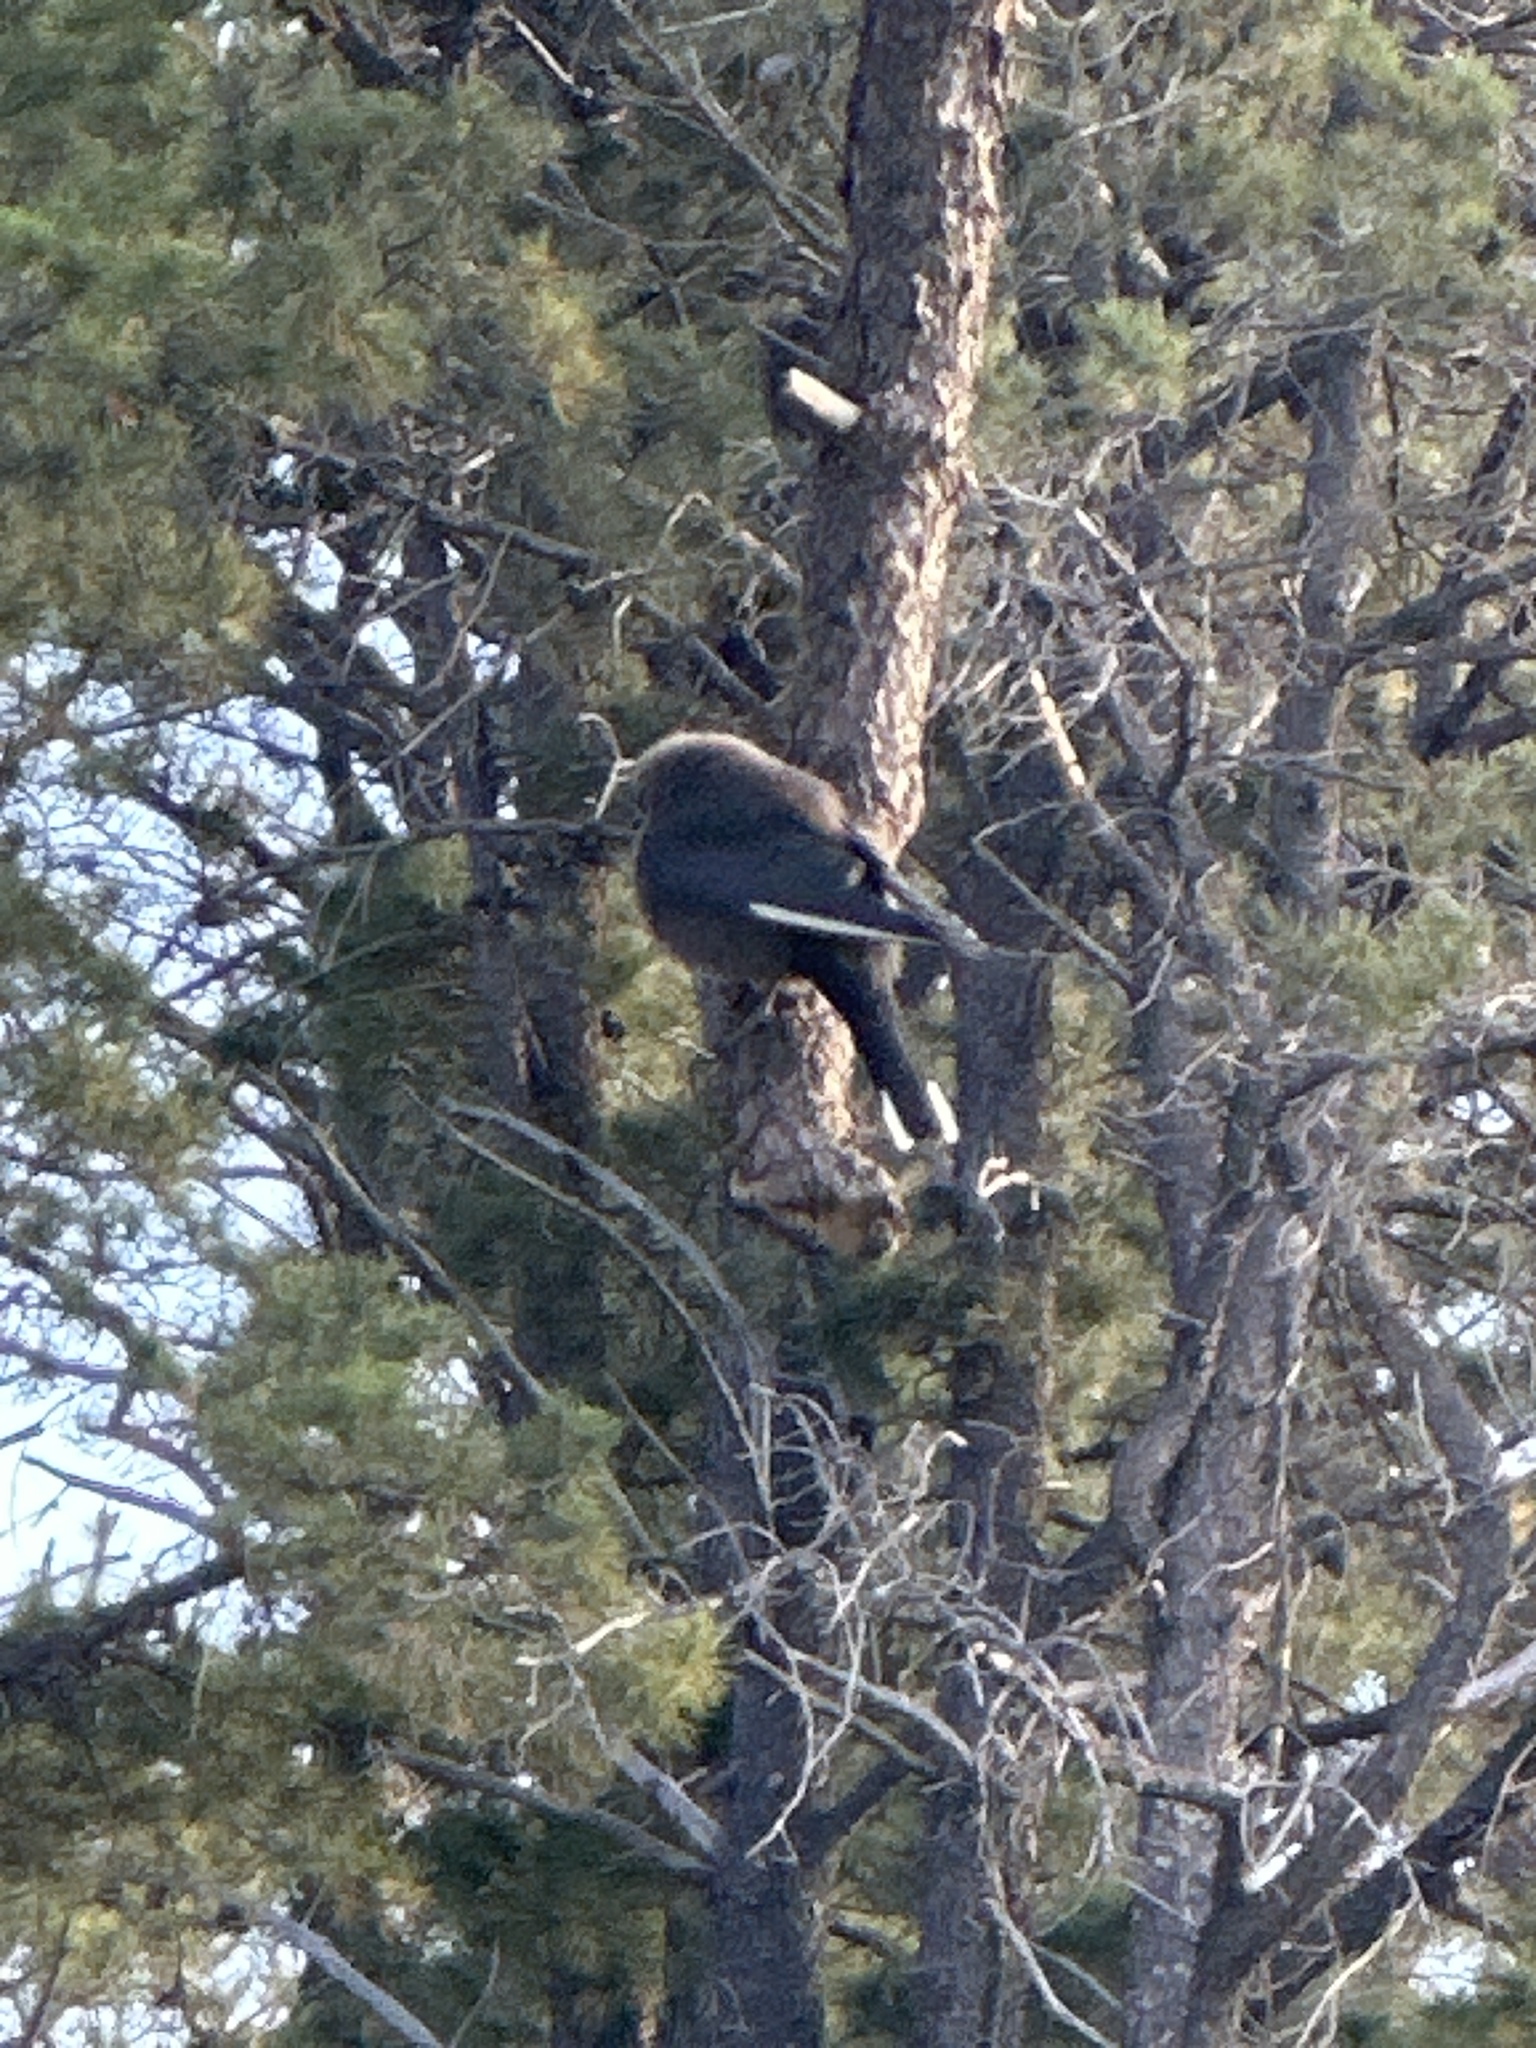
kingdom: Animalia
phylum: Chordata
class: Aves
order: Passeriformes
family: Artamidae
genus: Artamus
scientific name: Artamus cyanopterus
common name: Dusky woodswallow
